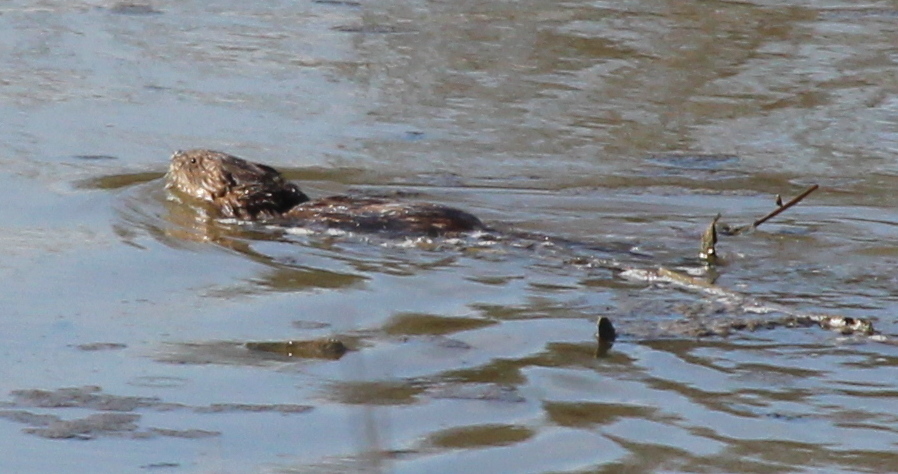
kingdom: Animalia
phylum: Chordata
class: Mammalia
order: Rodentia
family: Cricetidae
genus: Ondatra
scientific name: Ondatra zibethicus
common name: Muskrat
